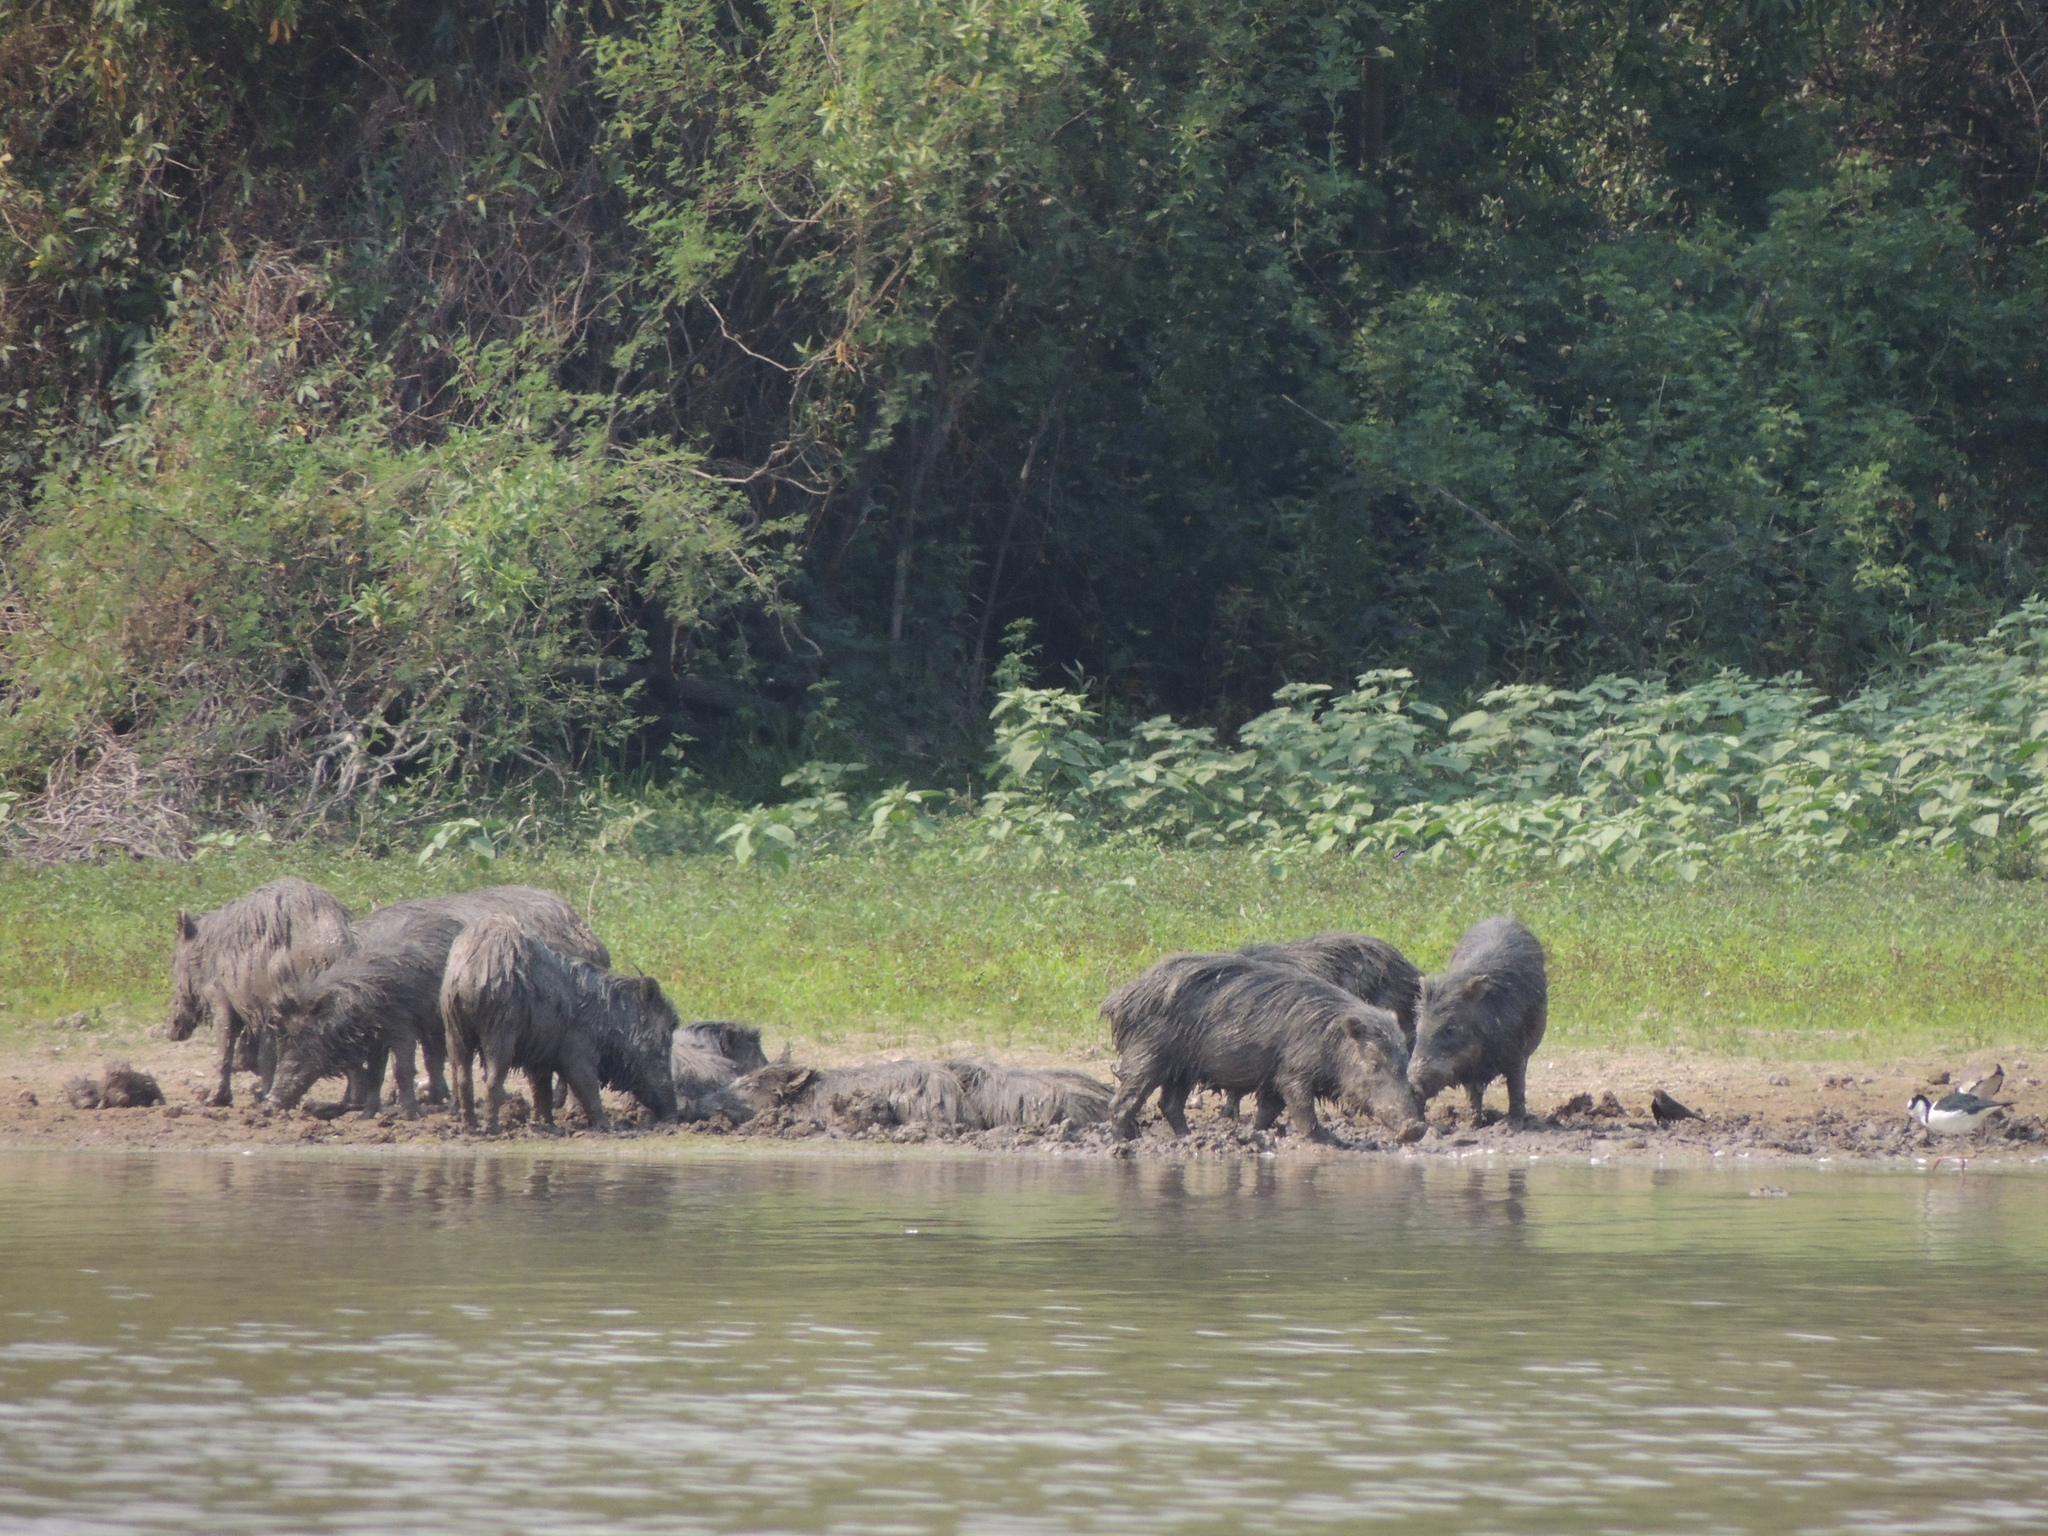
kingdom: Animalia
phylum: Chordata
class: Mammalia
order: Artiodactyla
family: Tayassuidae
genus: Tayassu
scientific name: Tayassu pecari
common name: White-lipped peccary
